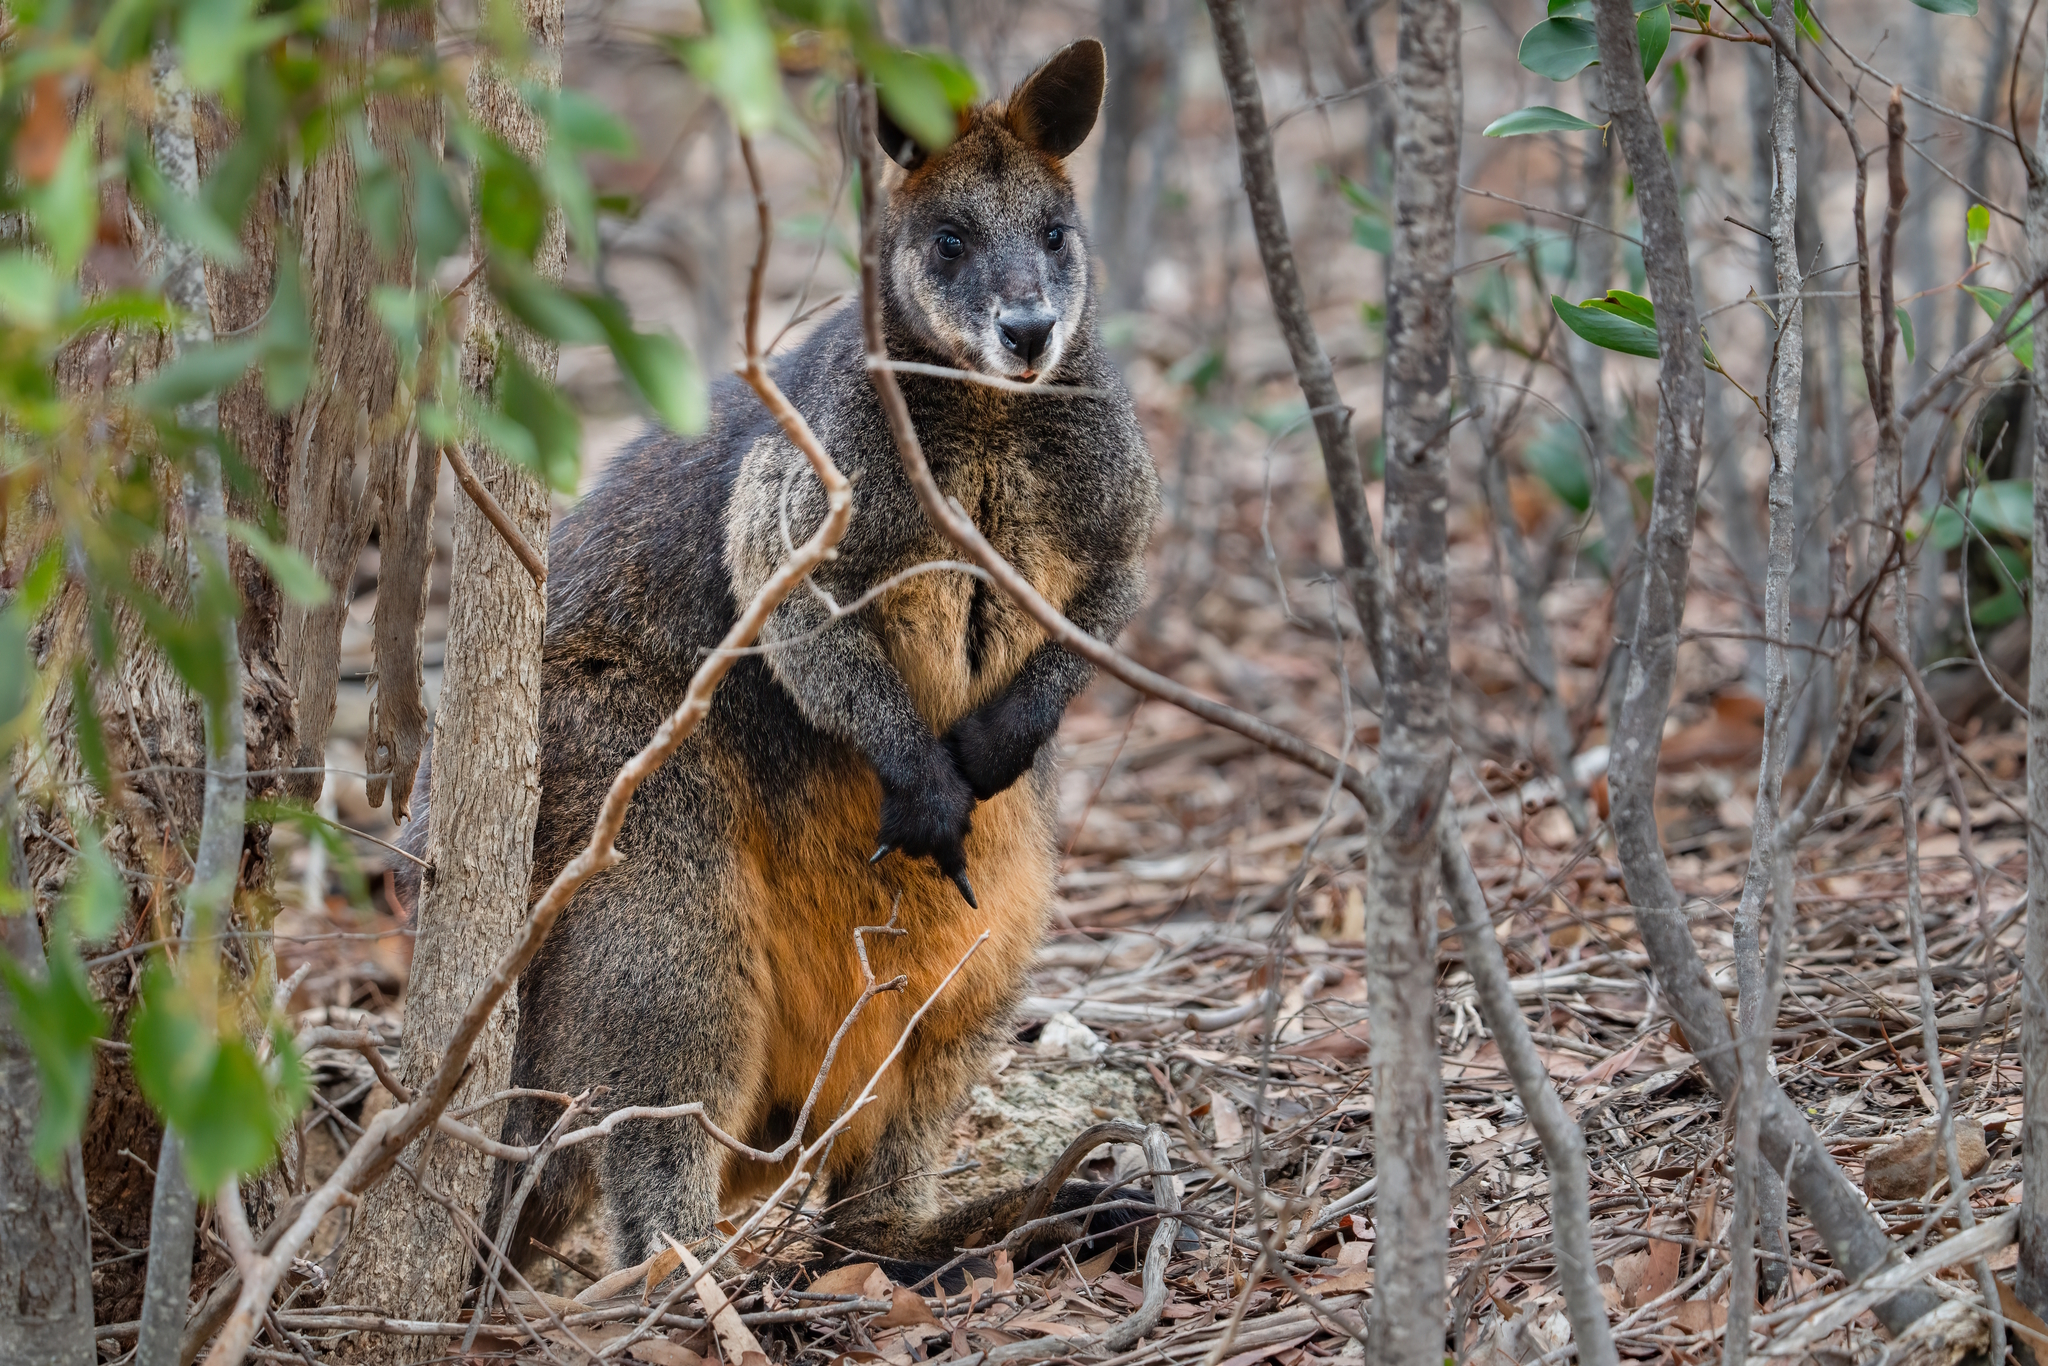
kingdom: Animalia
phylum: Chordata
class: Mammalia
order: Diprotodontia
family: Macropodidae
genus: Wallabia
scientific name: Wallabia bicolor
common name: Swamp wallaby
